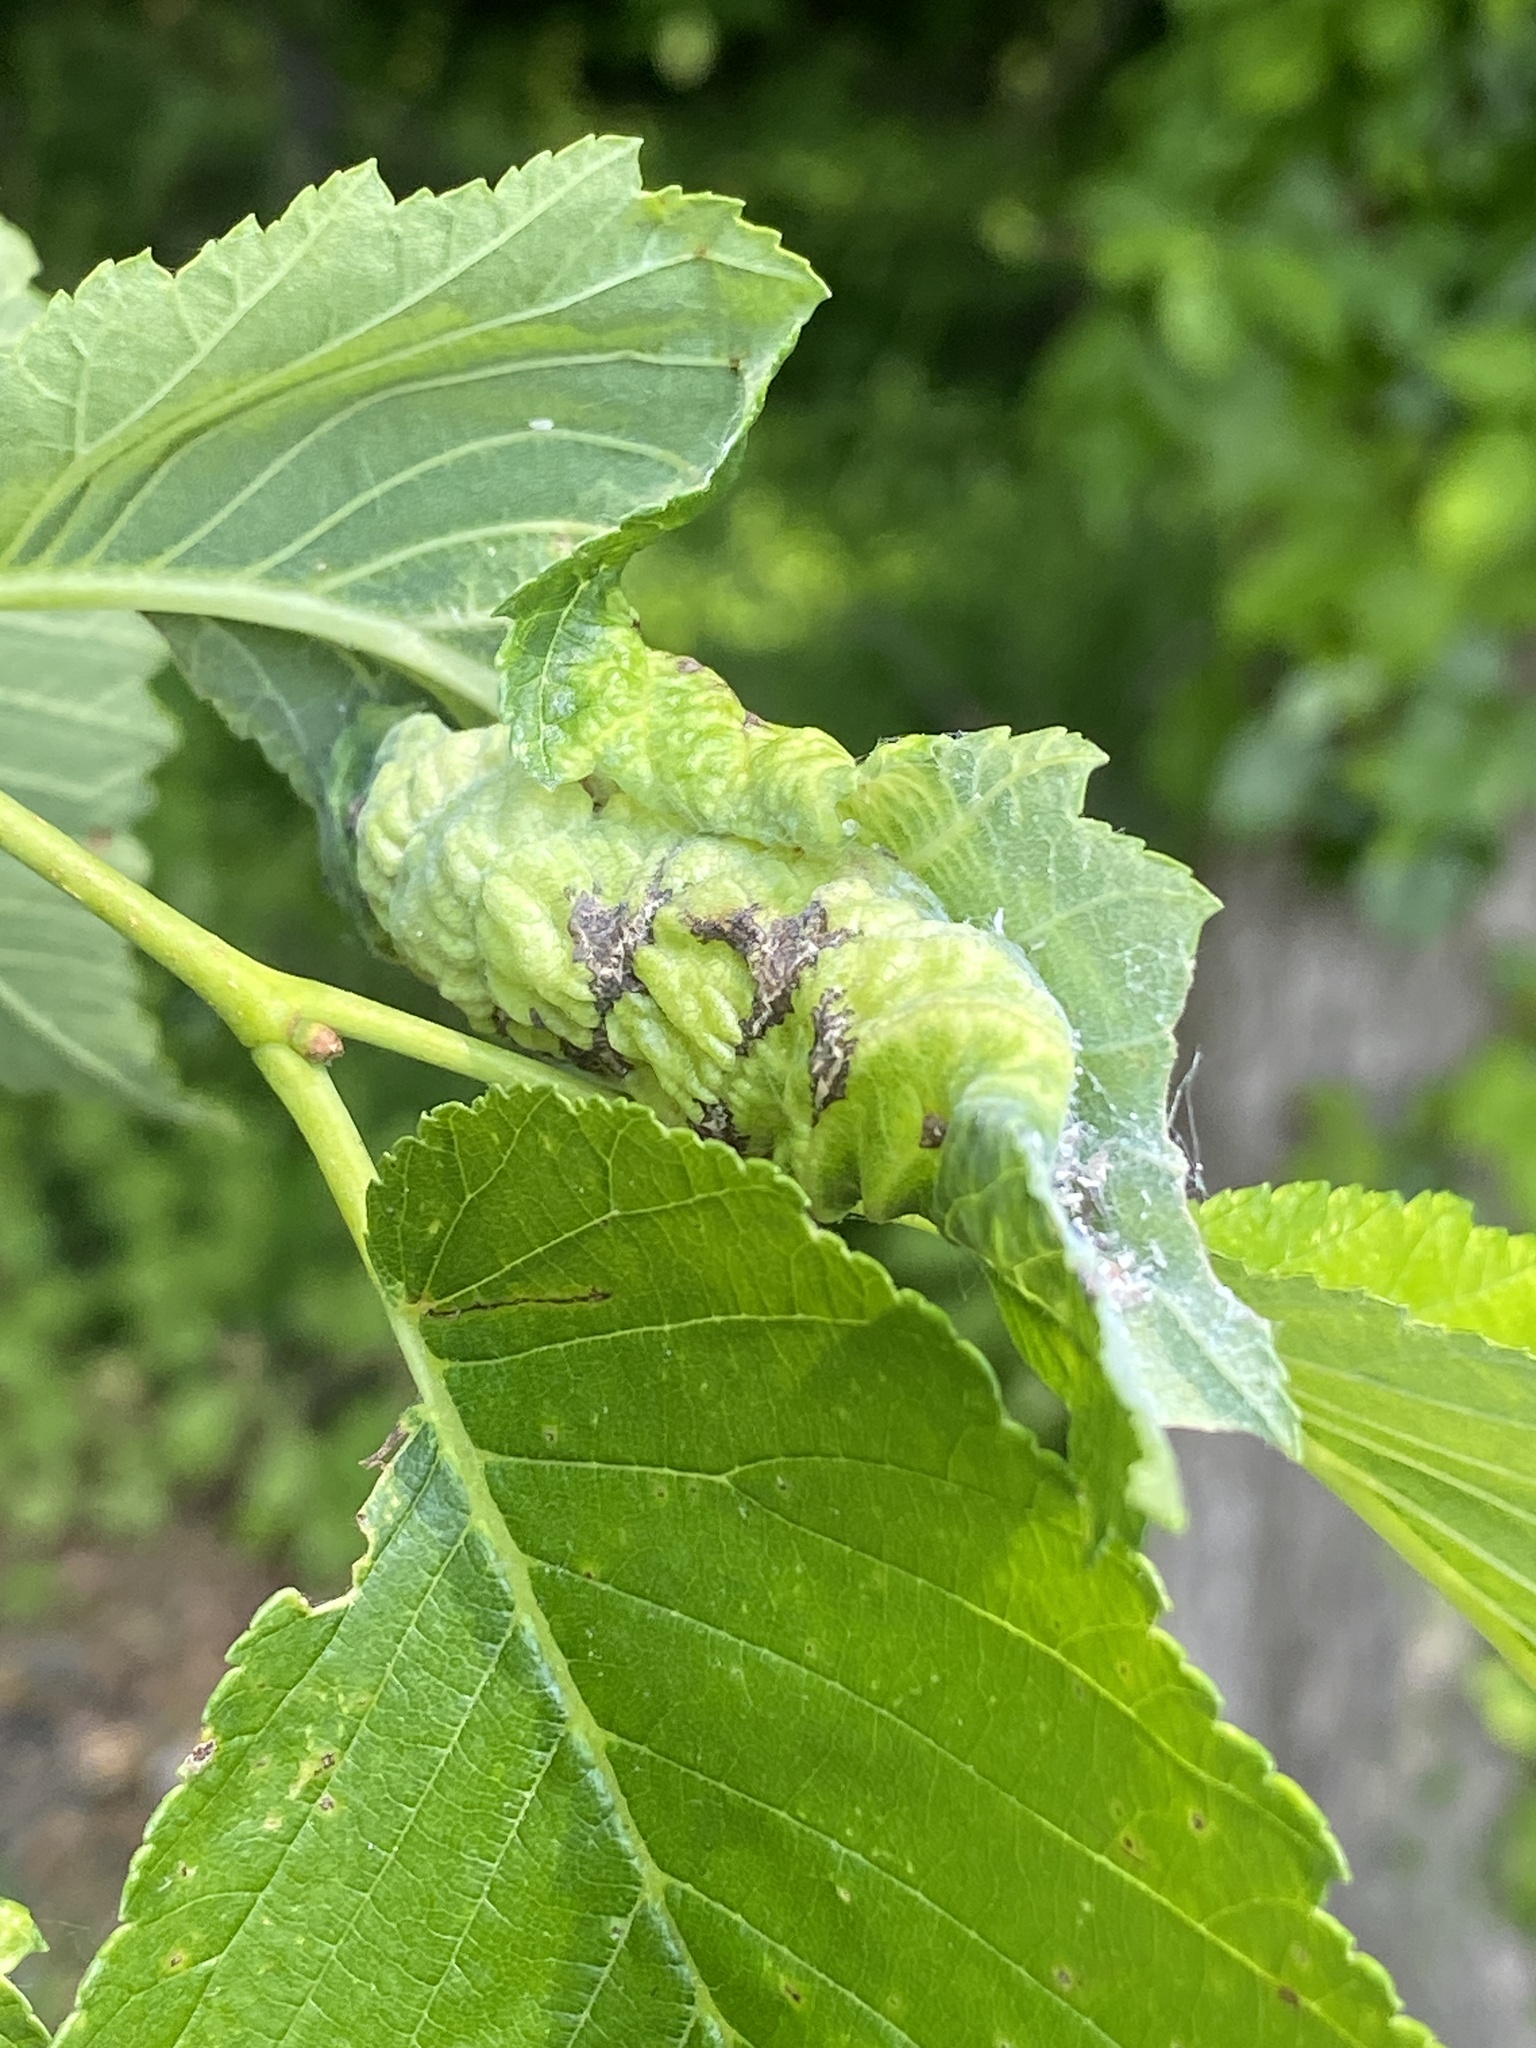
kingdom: Animalia
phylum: Arthropoda
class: Insecta
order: Hemiptera
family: Aphididae
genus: Eriosoma
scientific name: Eriosoma americanum
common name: Woolly elm aphid
